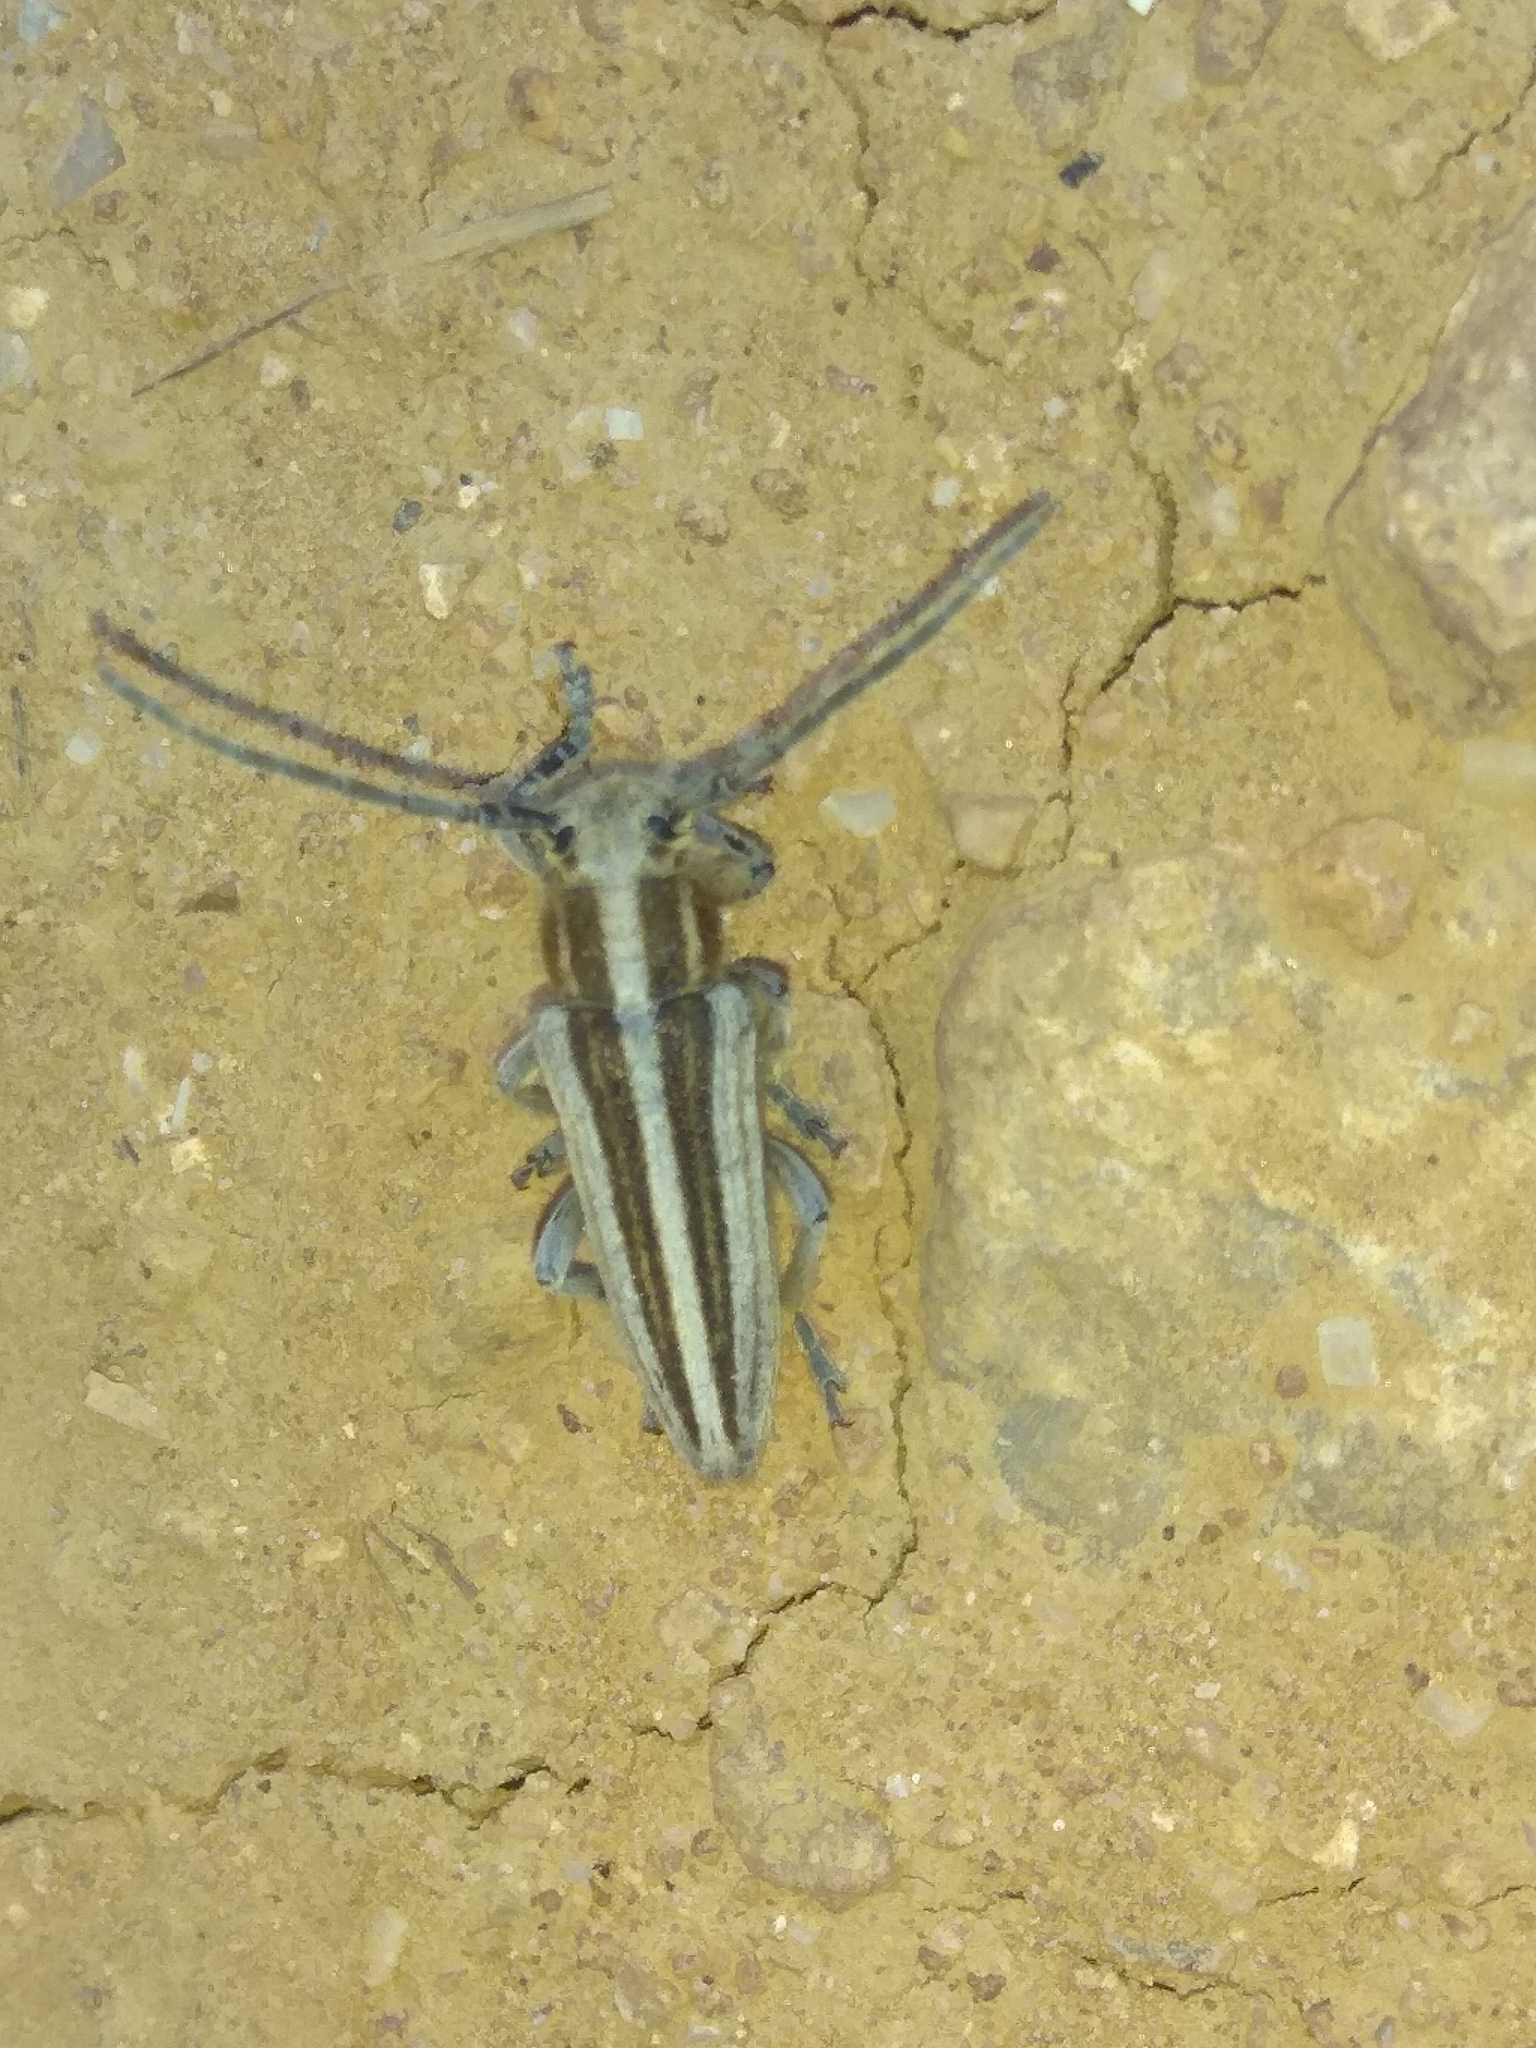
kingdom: Animalia
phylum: Arthropoda
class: Insecta
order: Coleoptera
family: Cerambycidae
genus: Phytoecia
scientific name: Phytoecia kubani
